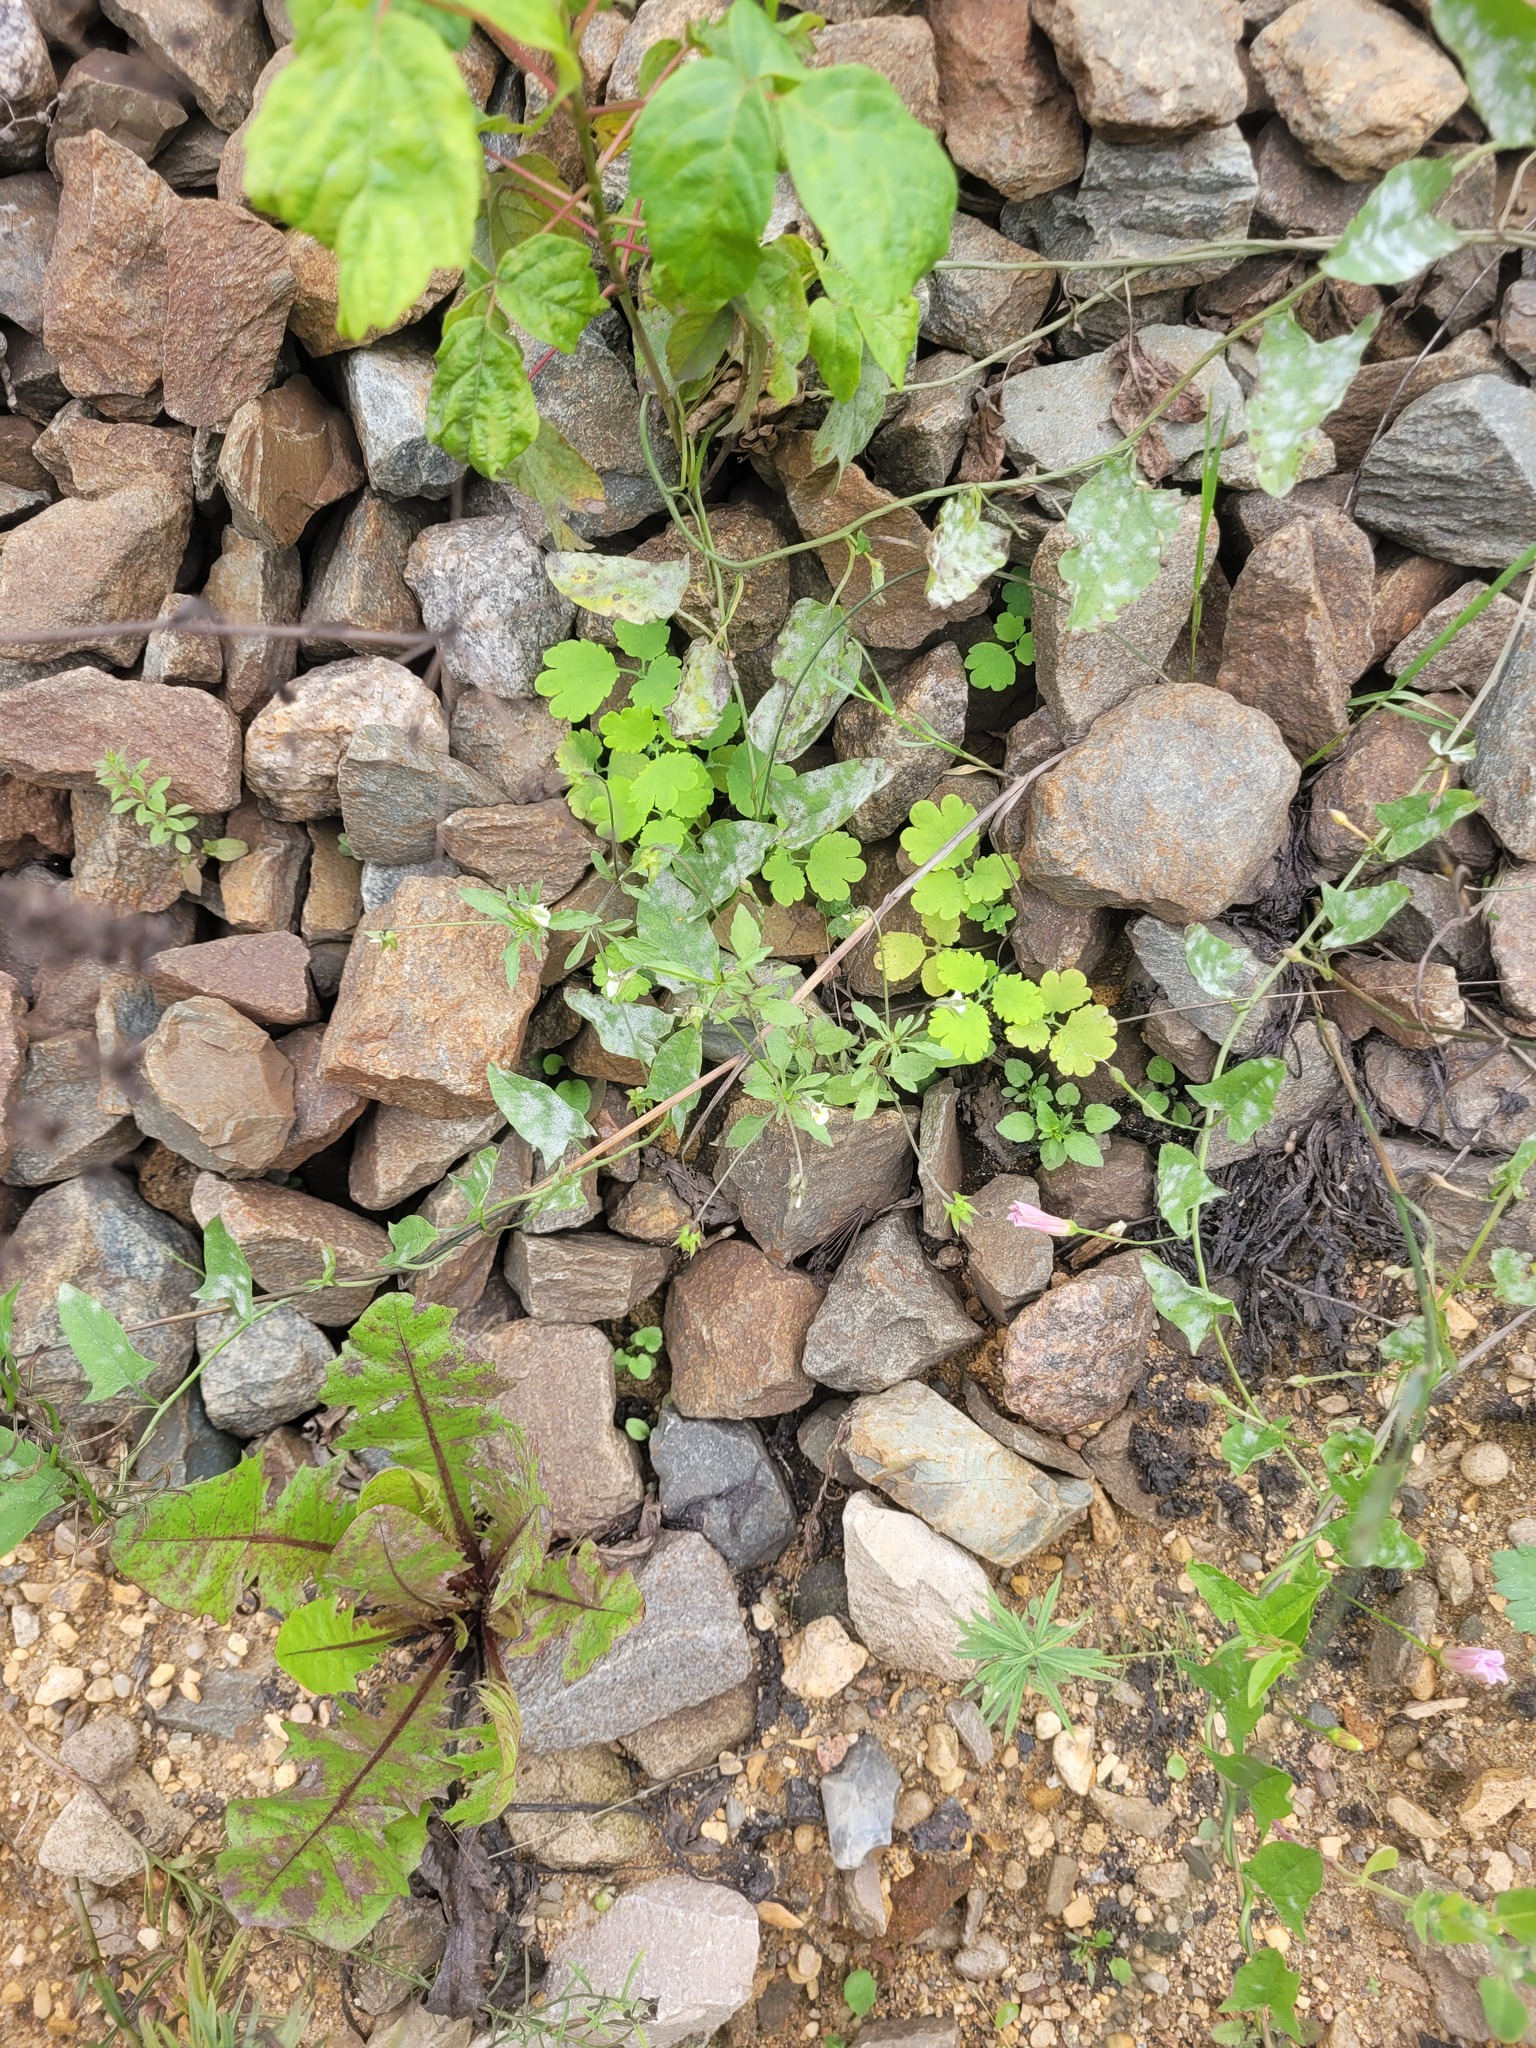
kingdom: Plantae
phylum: Tracheophyta
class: Magnoliopsida
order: Malpighiales
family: Violaceae
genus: Viola
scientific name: Viola arvensis
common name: Field pansy
